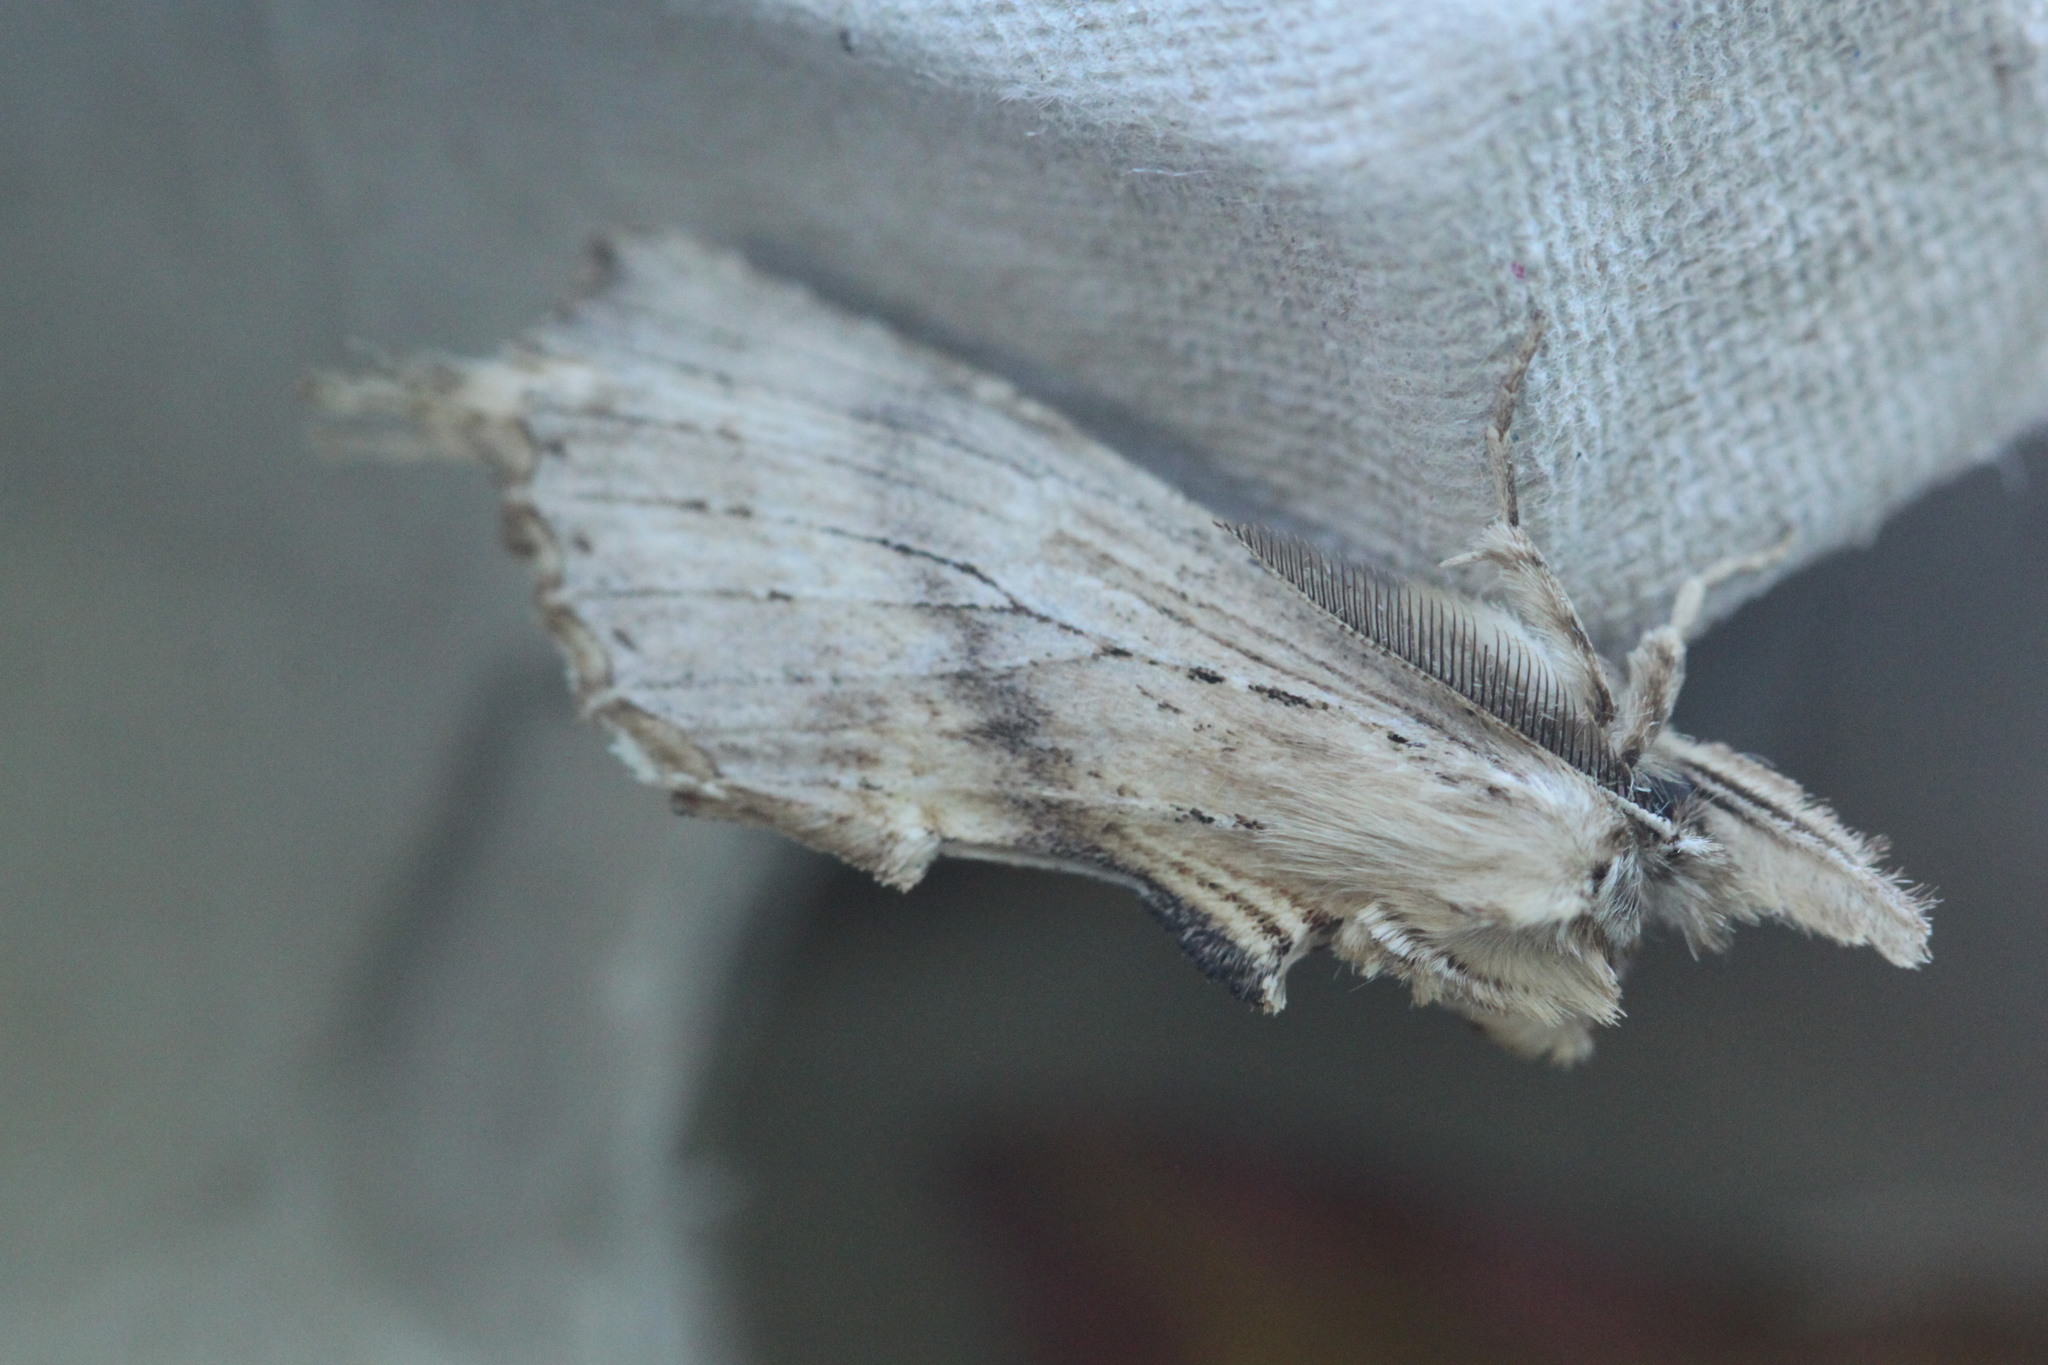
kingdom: Animalia
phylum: Arthropoda
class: Insecta
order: Lepidoptera
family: Notodontidae
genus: Pterostoma
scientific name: Pterostoma palpina
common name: Pale prominent
